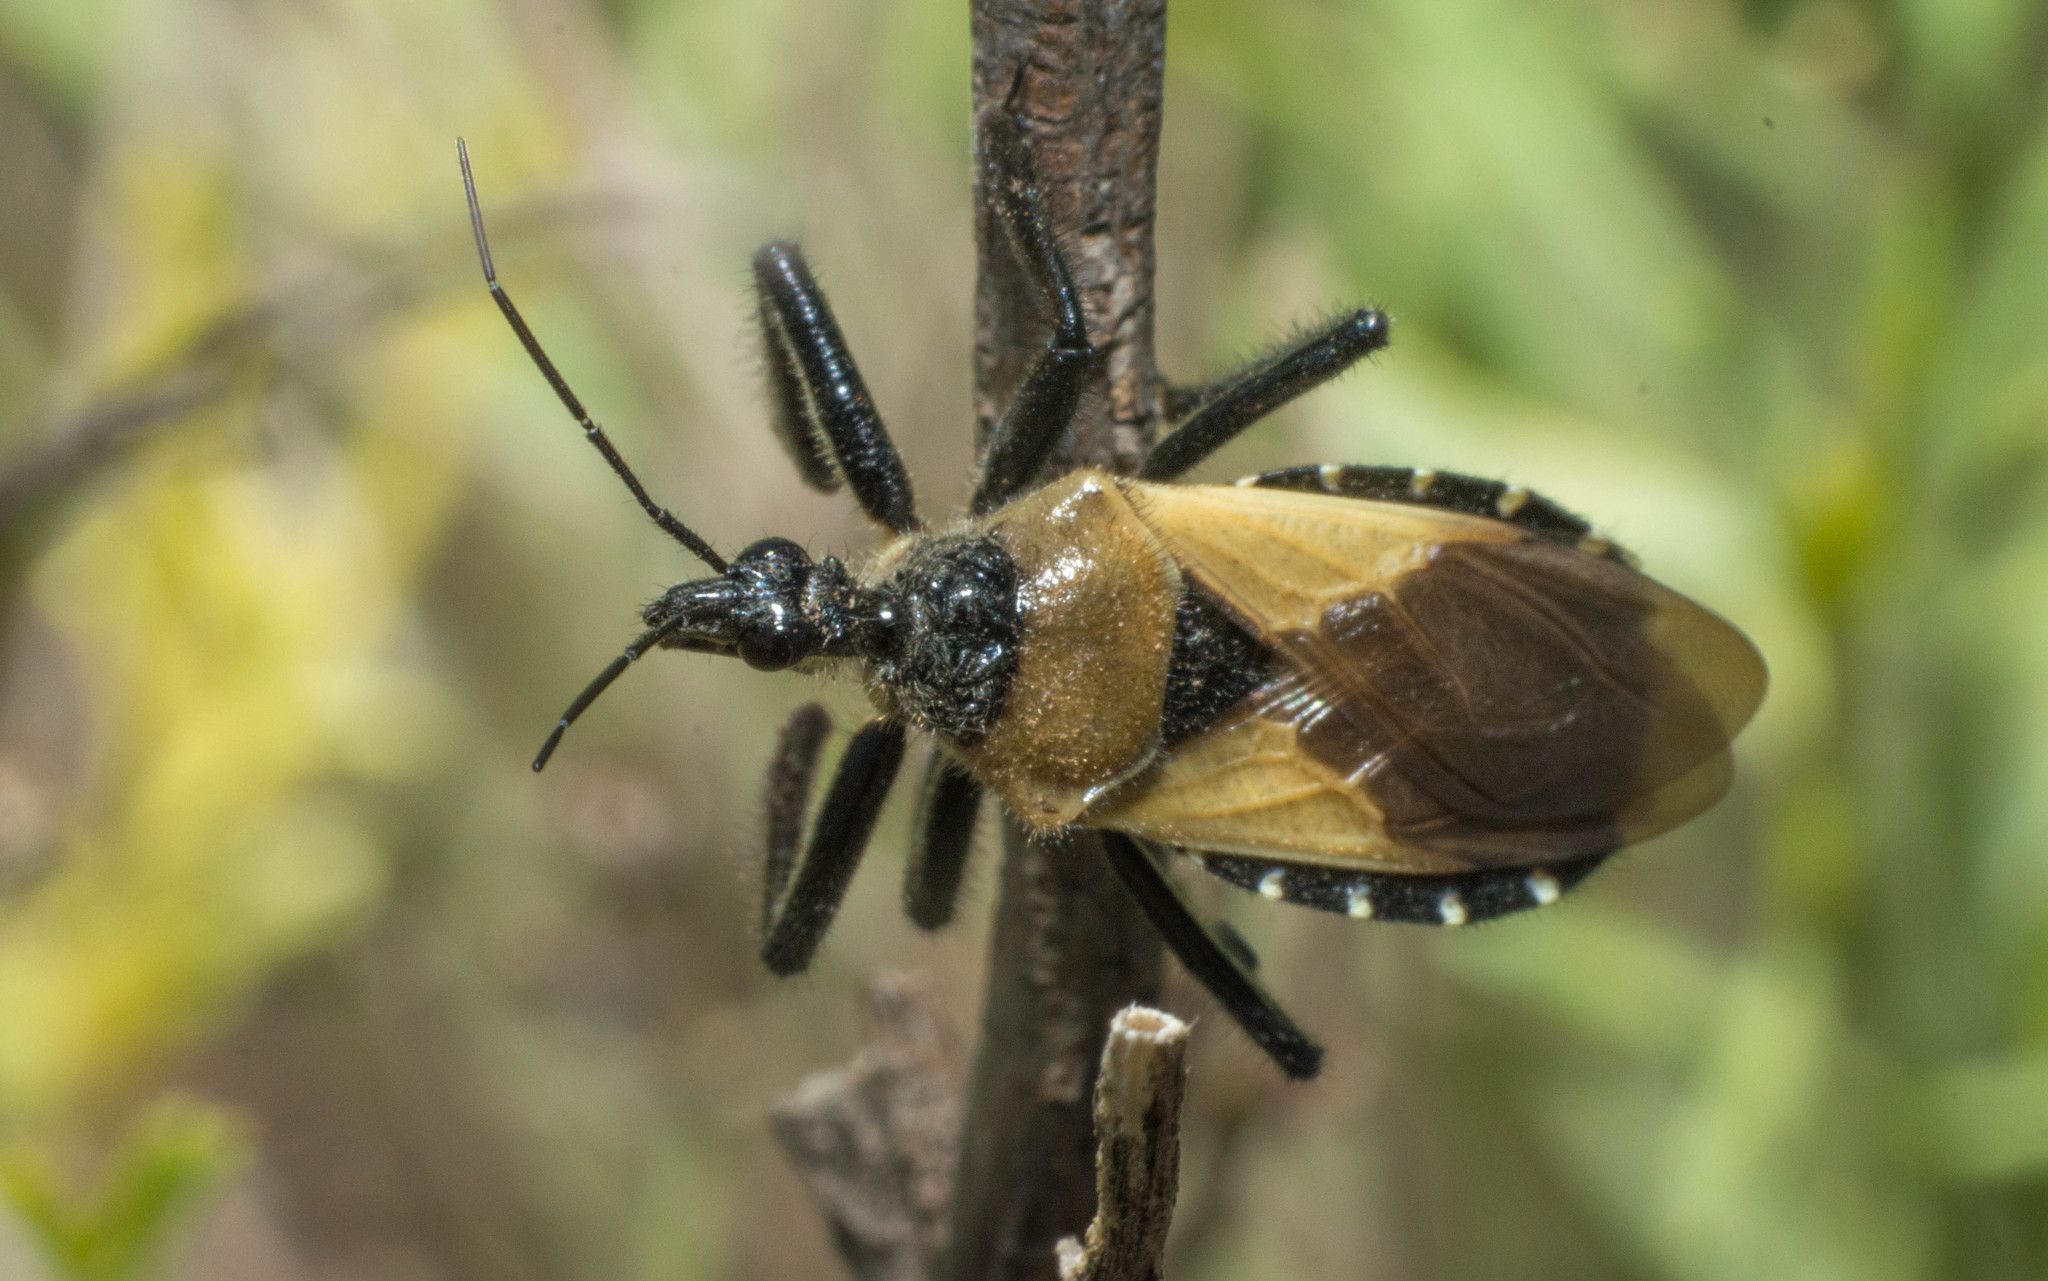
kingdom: Animalia
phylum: Arthropoda
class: Insecta
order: Hemiptera
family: Reduviidae
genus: Apiomerus
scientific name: Apiomerus barbiellinii
